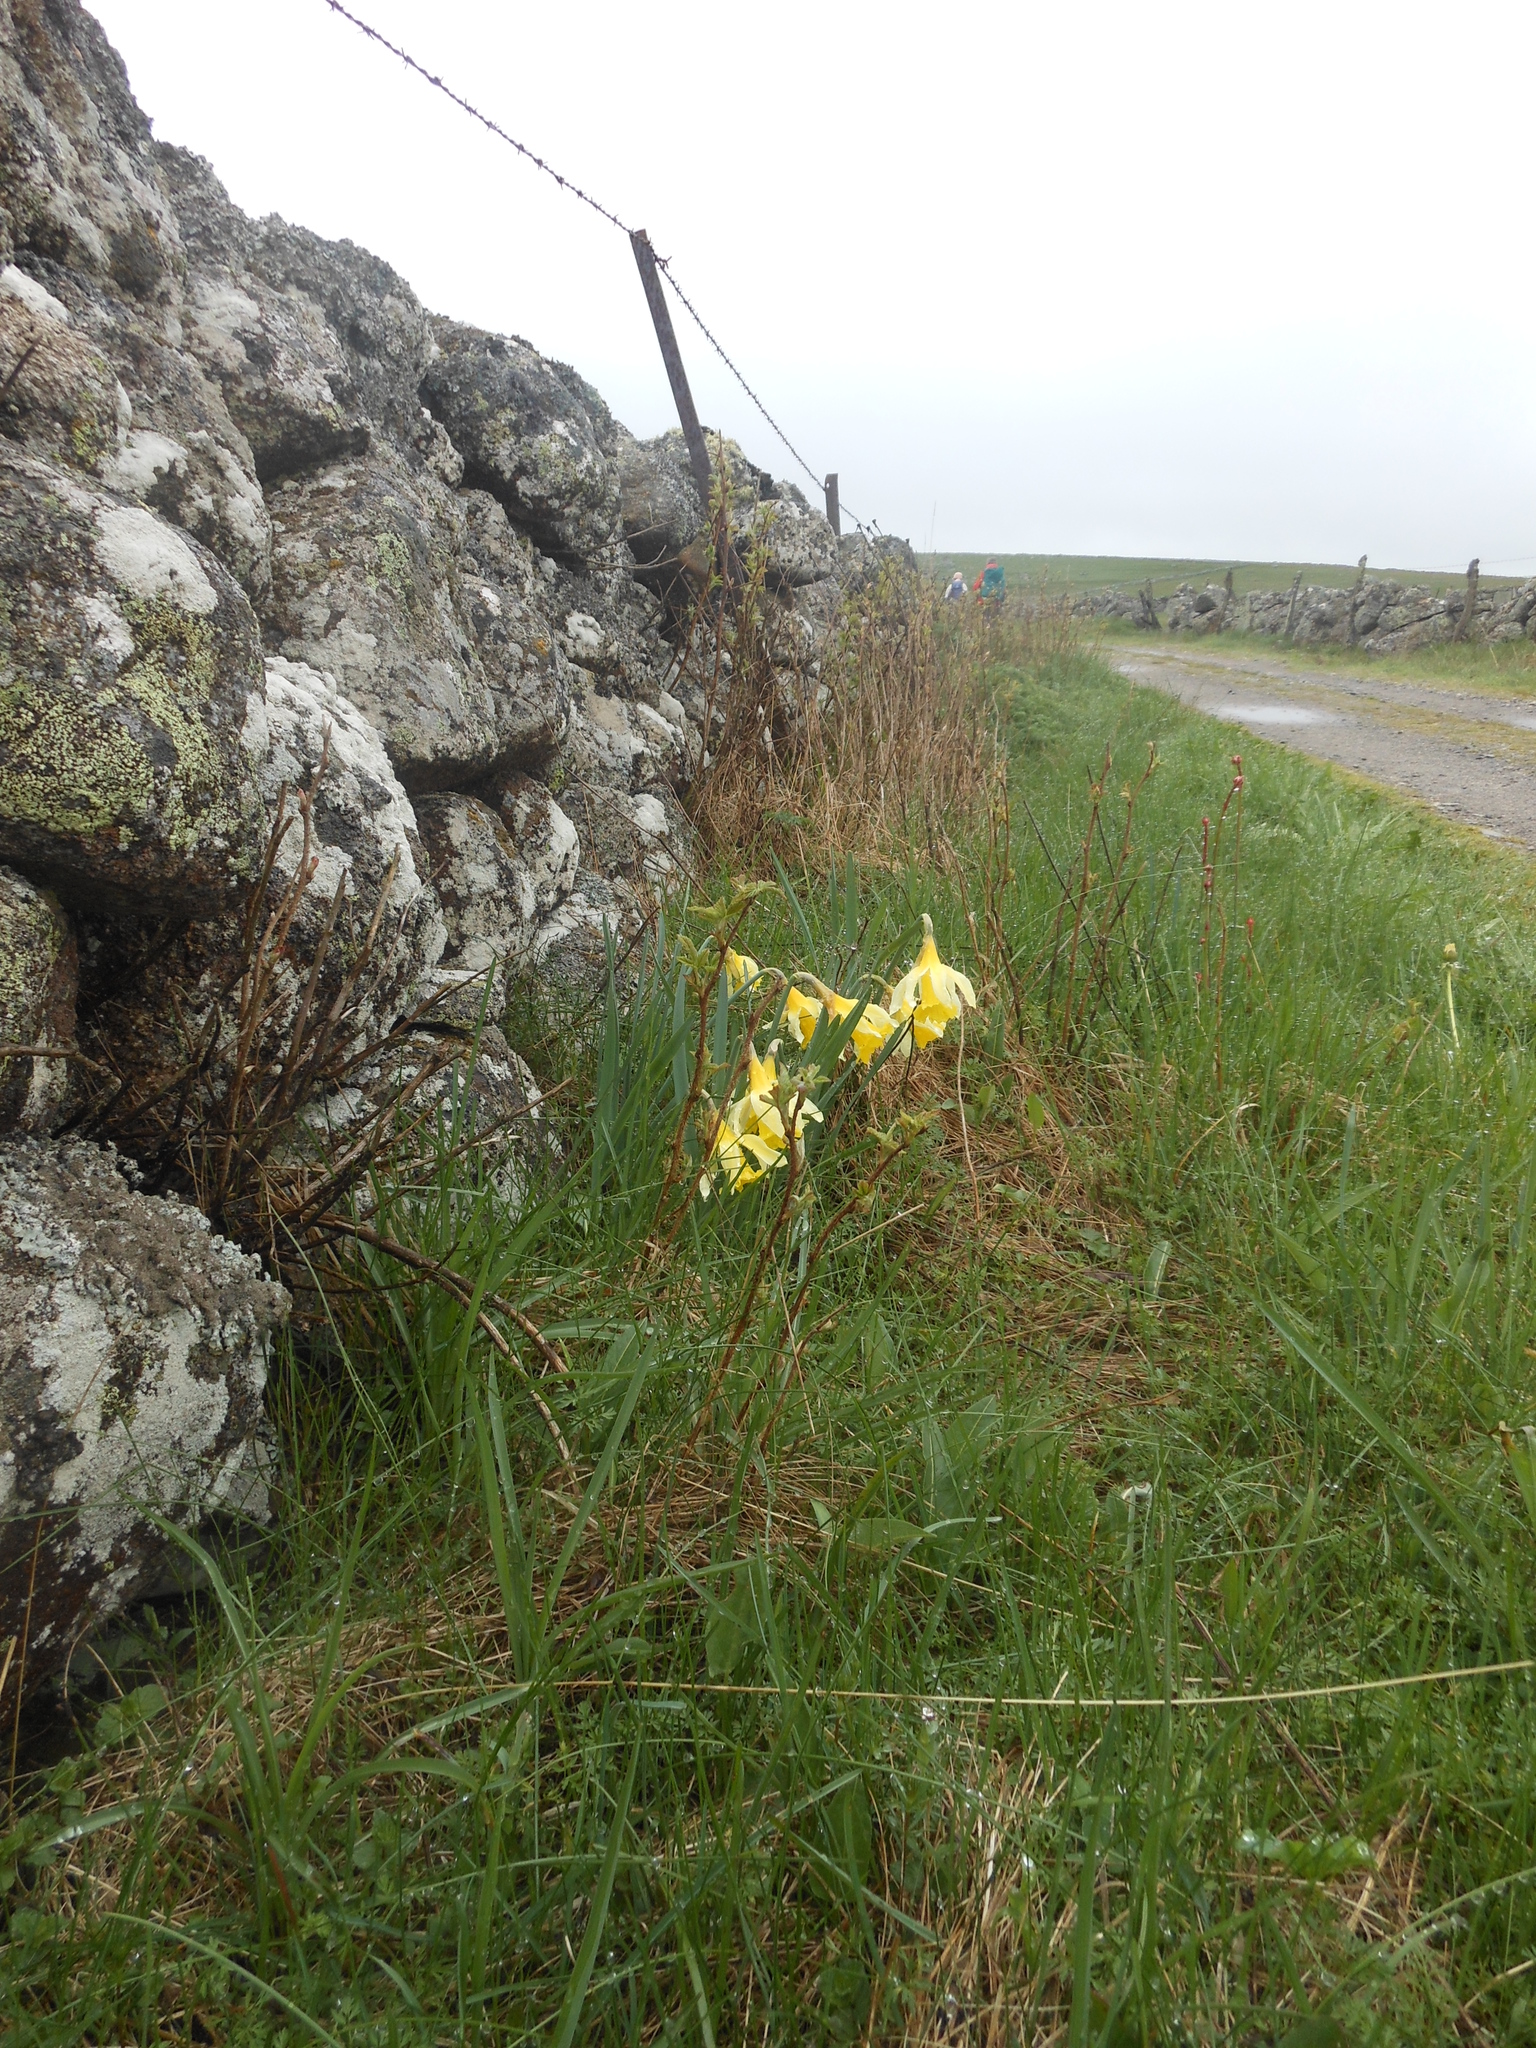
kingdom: Plantae
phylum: Tracheophyta
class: Liliopsida
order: Asparagales
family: Amaryllidaceae
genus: Narcissus
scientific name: Narcissus pseudonarcissus
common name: Daffodil
